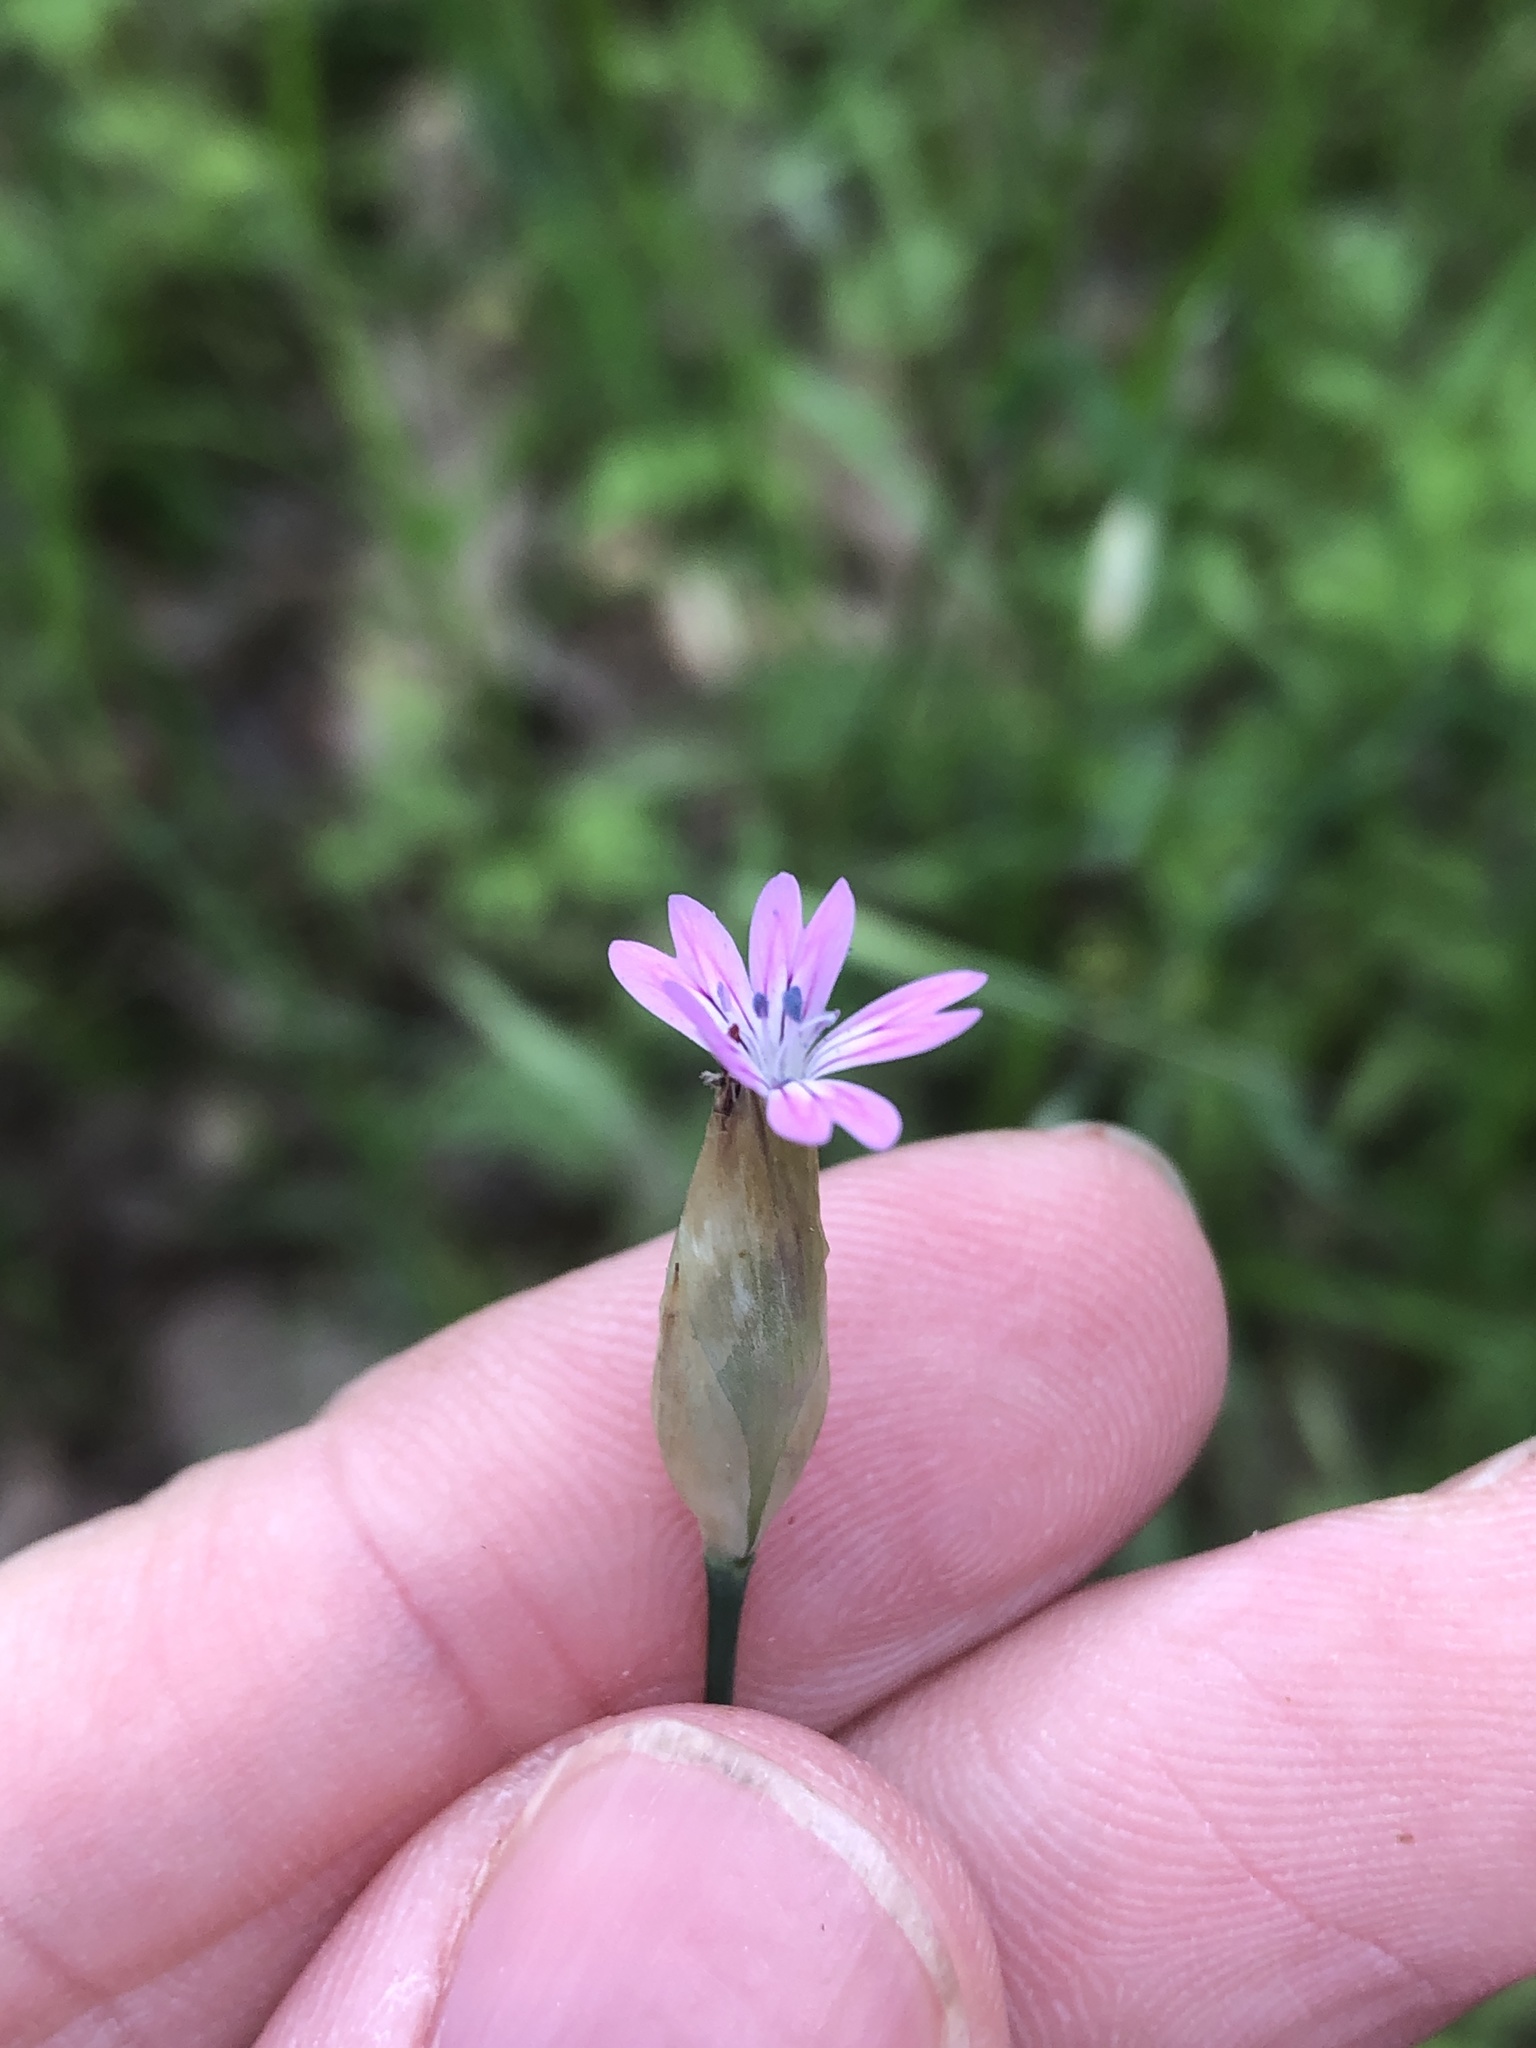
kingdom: Plantae
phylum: Tracheophyta
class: Magnoliopsida
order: Caryophyllales
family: Caryophyllaceae
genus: Petrorhagia
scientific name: Petrorhagia dubia
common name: Hairypink
